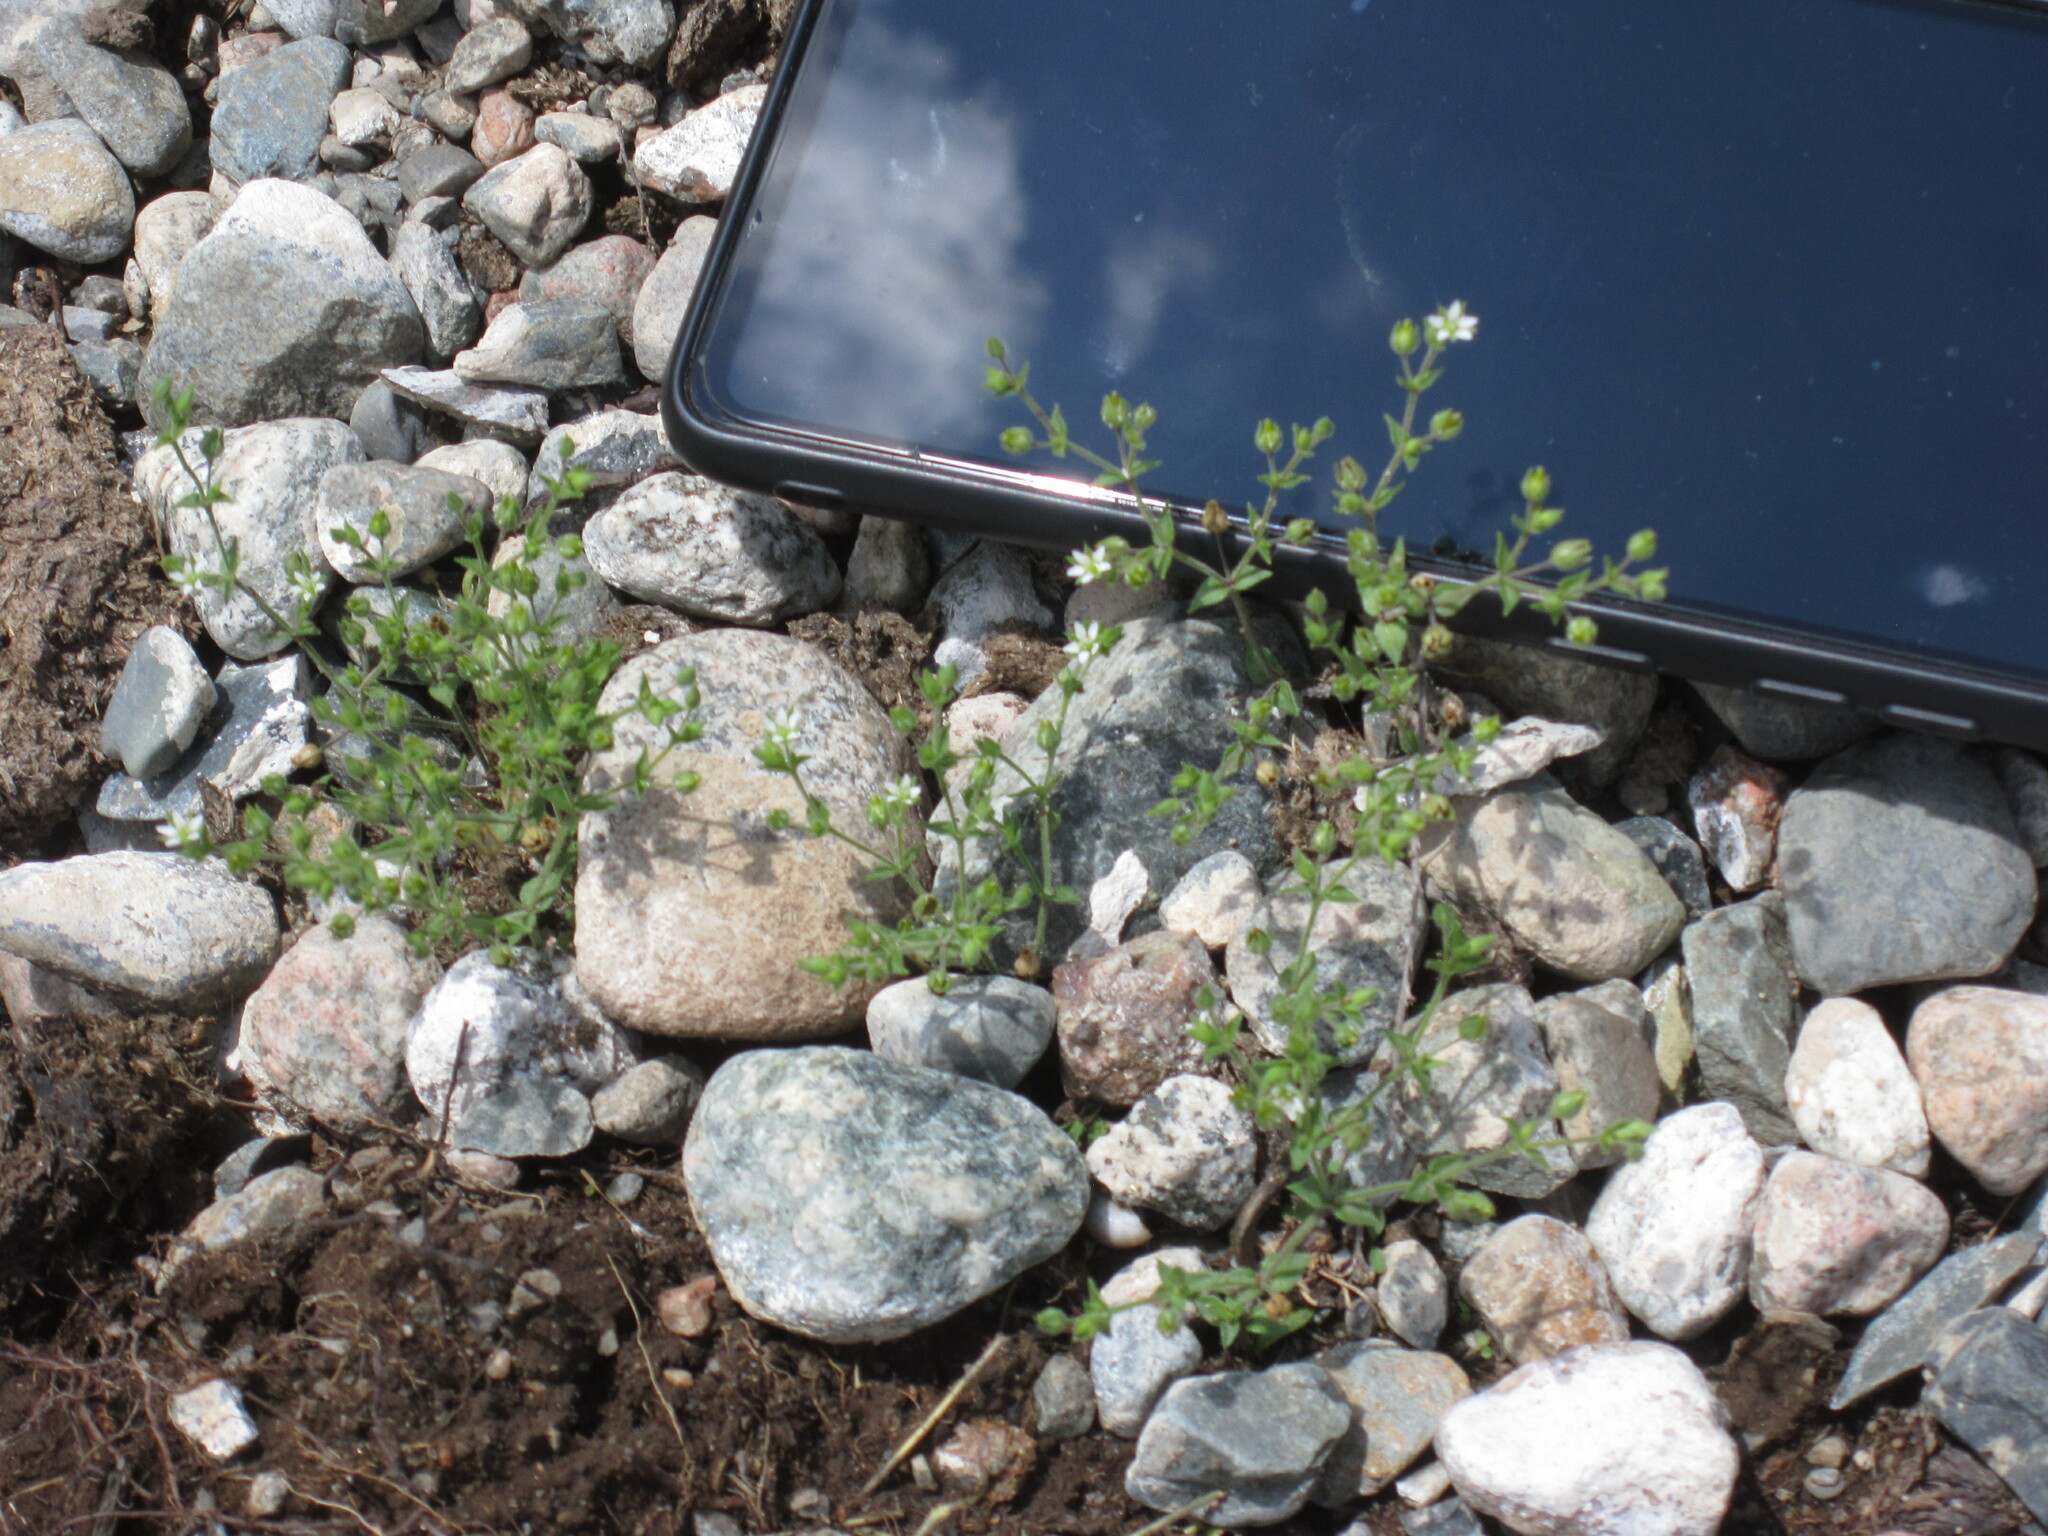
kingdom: Plantae
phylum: Tracheophyta
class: Magnoliopsida
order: Caryophyllales
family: Caryophyllaceae
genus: Arenaria
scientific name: Arenaria serpyllifolia
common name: Thyme-leaved sandwort
